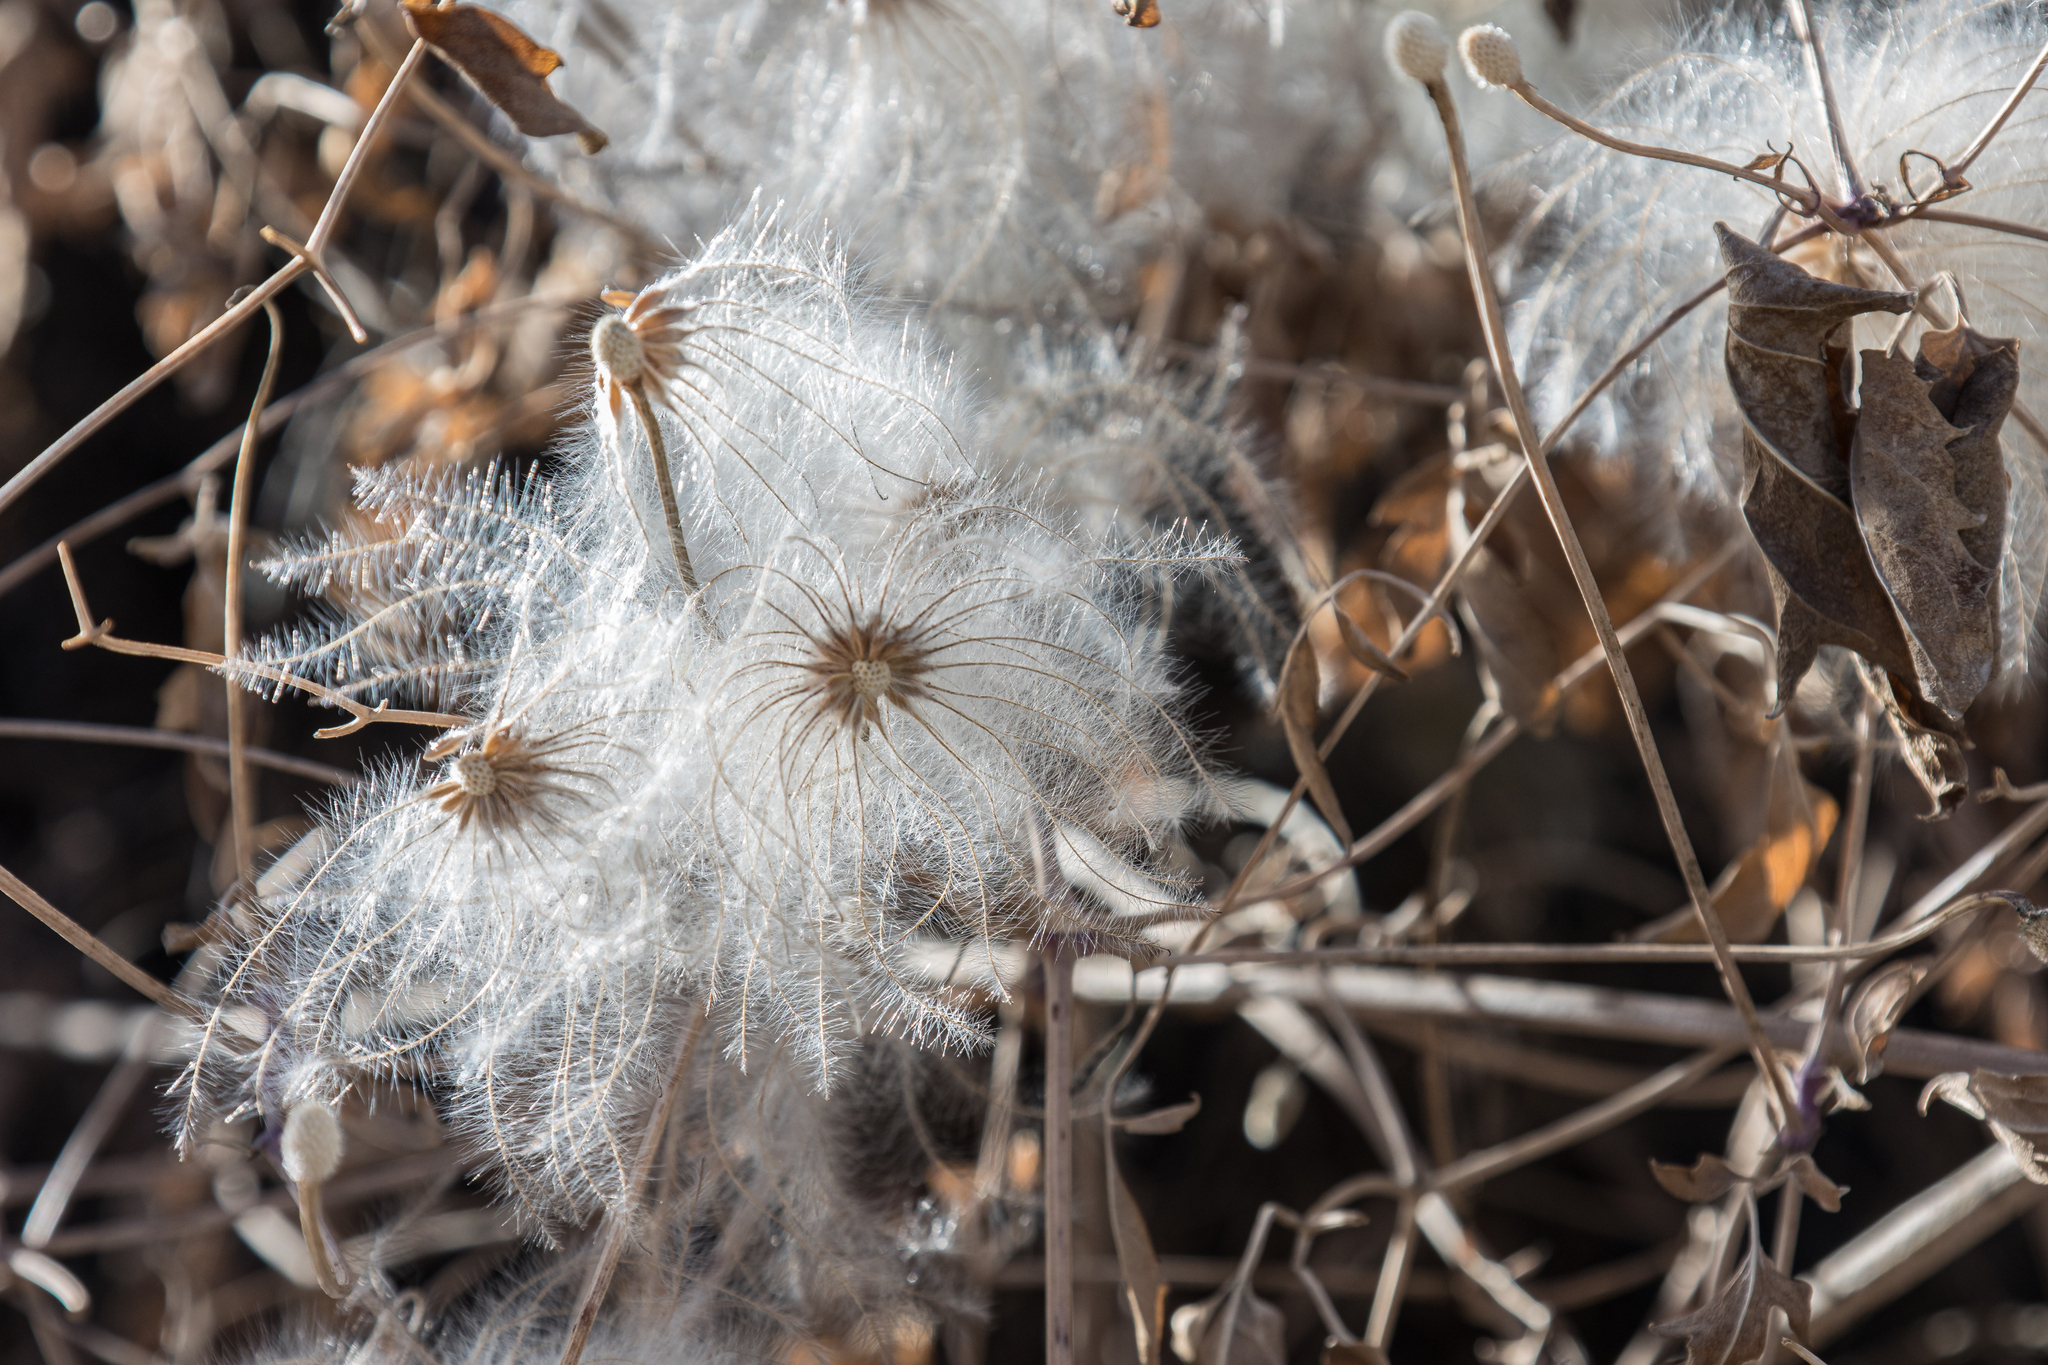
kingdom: Plantae
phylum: Tracheophyta
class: Magnoliopsida
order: Ranunculales
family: Ranunculaceae
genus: Clematis
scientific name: Clematis orientalis
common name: Oriental virgin's-bower
